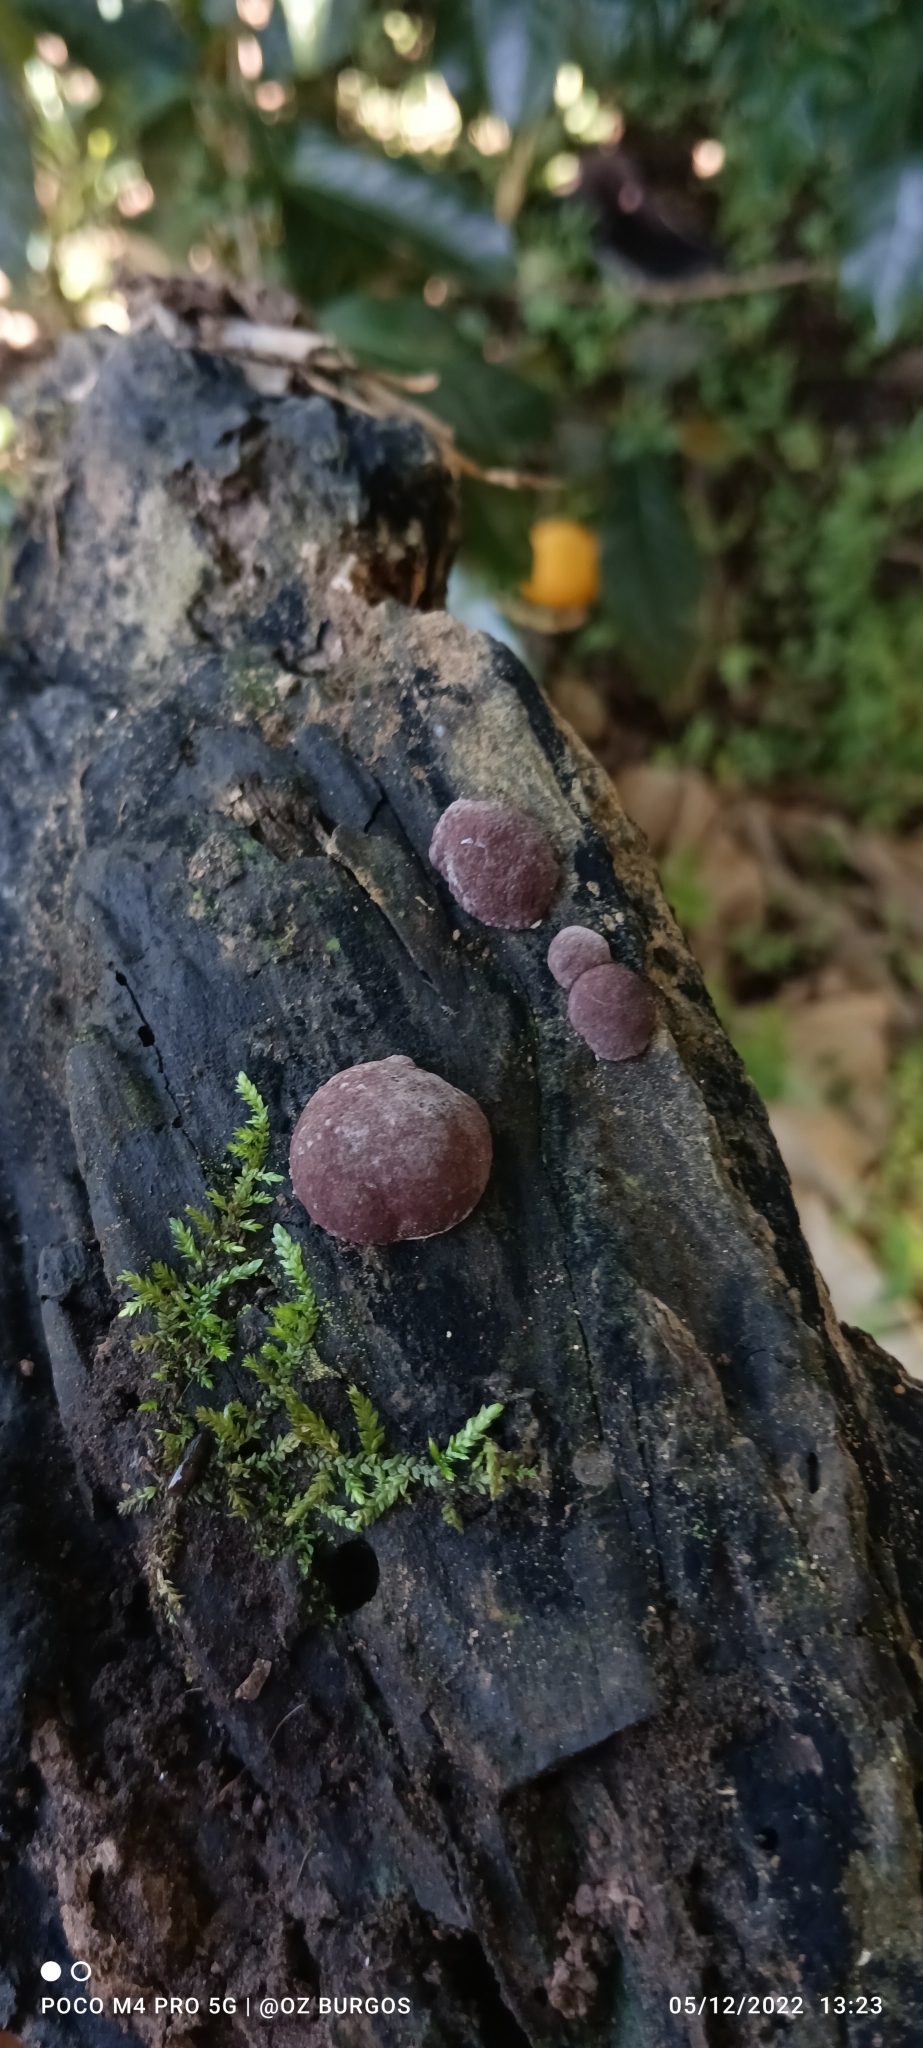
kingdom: Fungi
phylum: Ascomycota
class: Sordariomycetes
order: Xylariales
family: Hypoxylaceae
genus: Hypoxylon
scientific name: Hypoxylon fuscum
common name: Hazel woodwart
